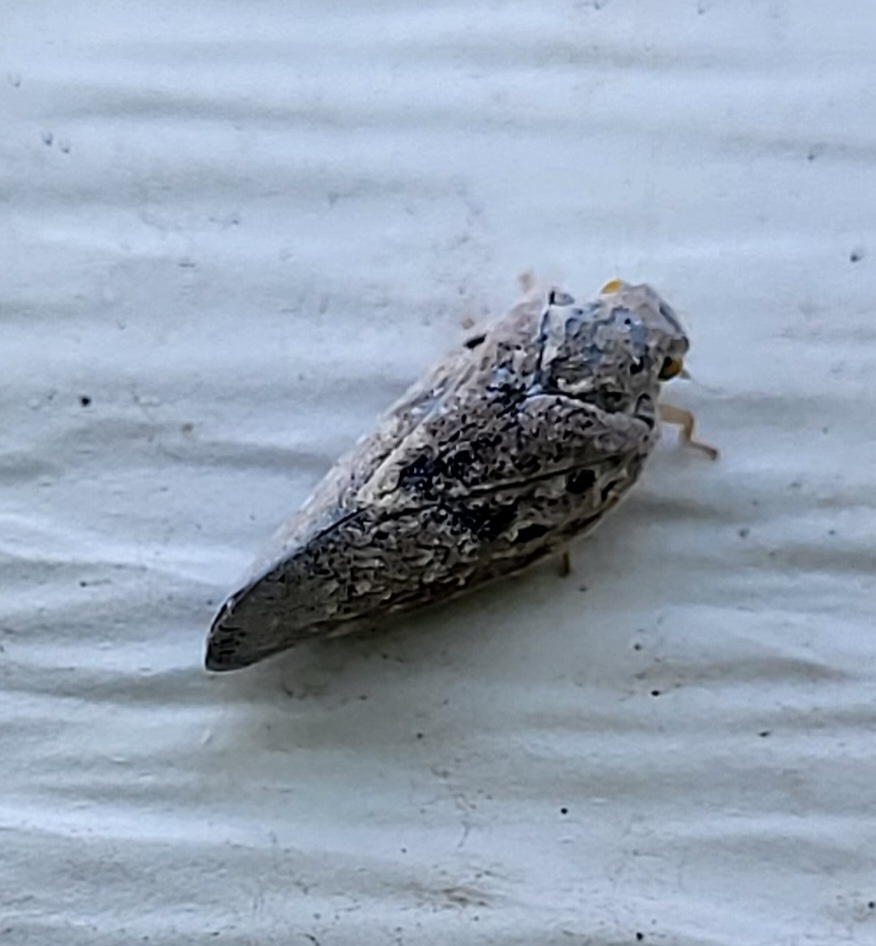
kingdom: Animalia
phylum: Arthropoda
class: Insecta
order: Hemiptera
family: Flatidae
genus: Metcalfa
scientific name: Metcalfa pruinosa
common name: Citrus flatid planthopper
